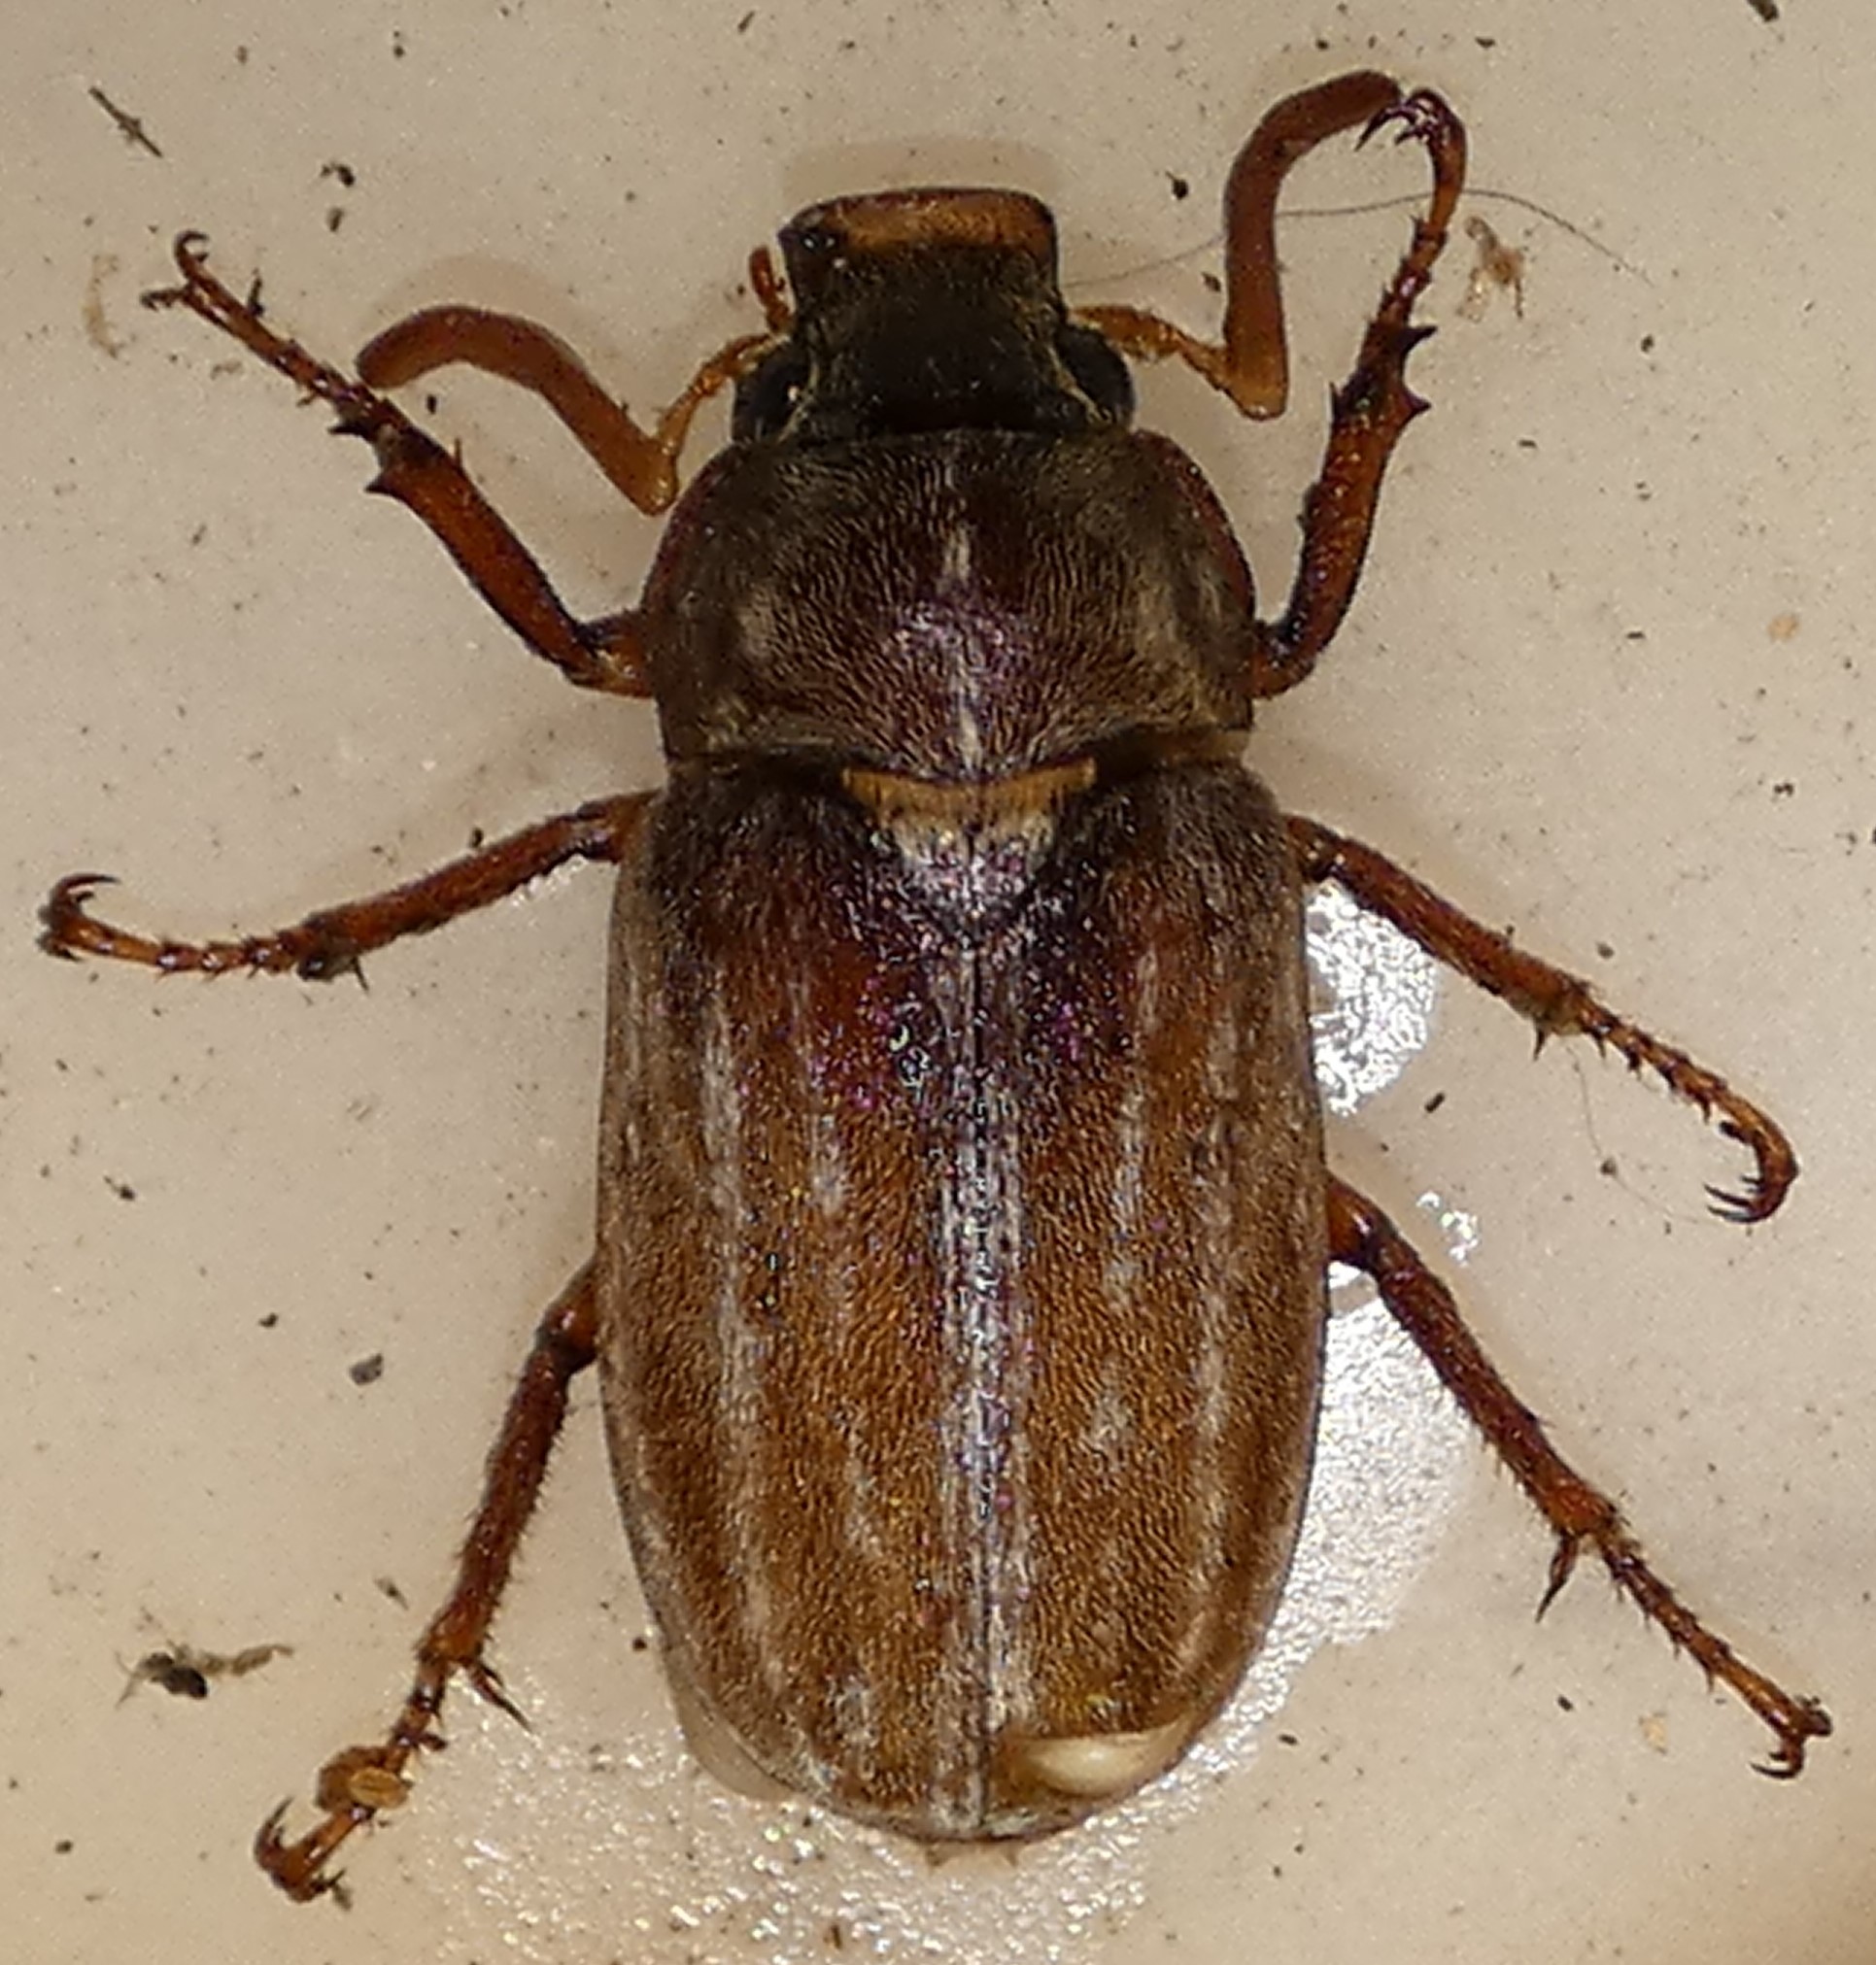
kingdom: Animalia
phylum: Arthropoda
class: Insecta
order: Coleoptera
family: Scarabaeidae
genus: Polyphylla
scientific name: Polyphylla occidentalis
